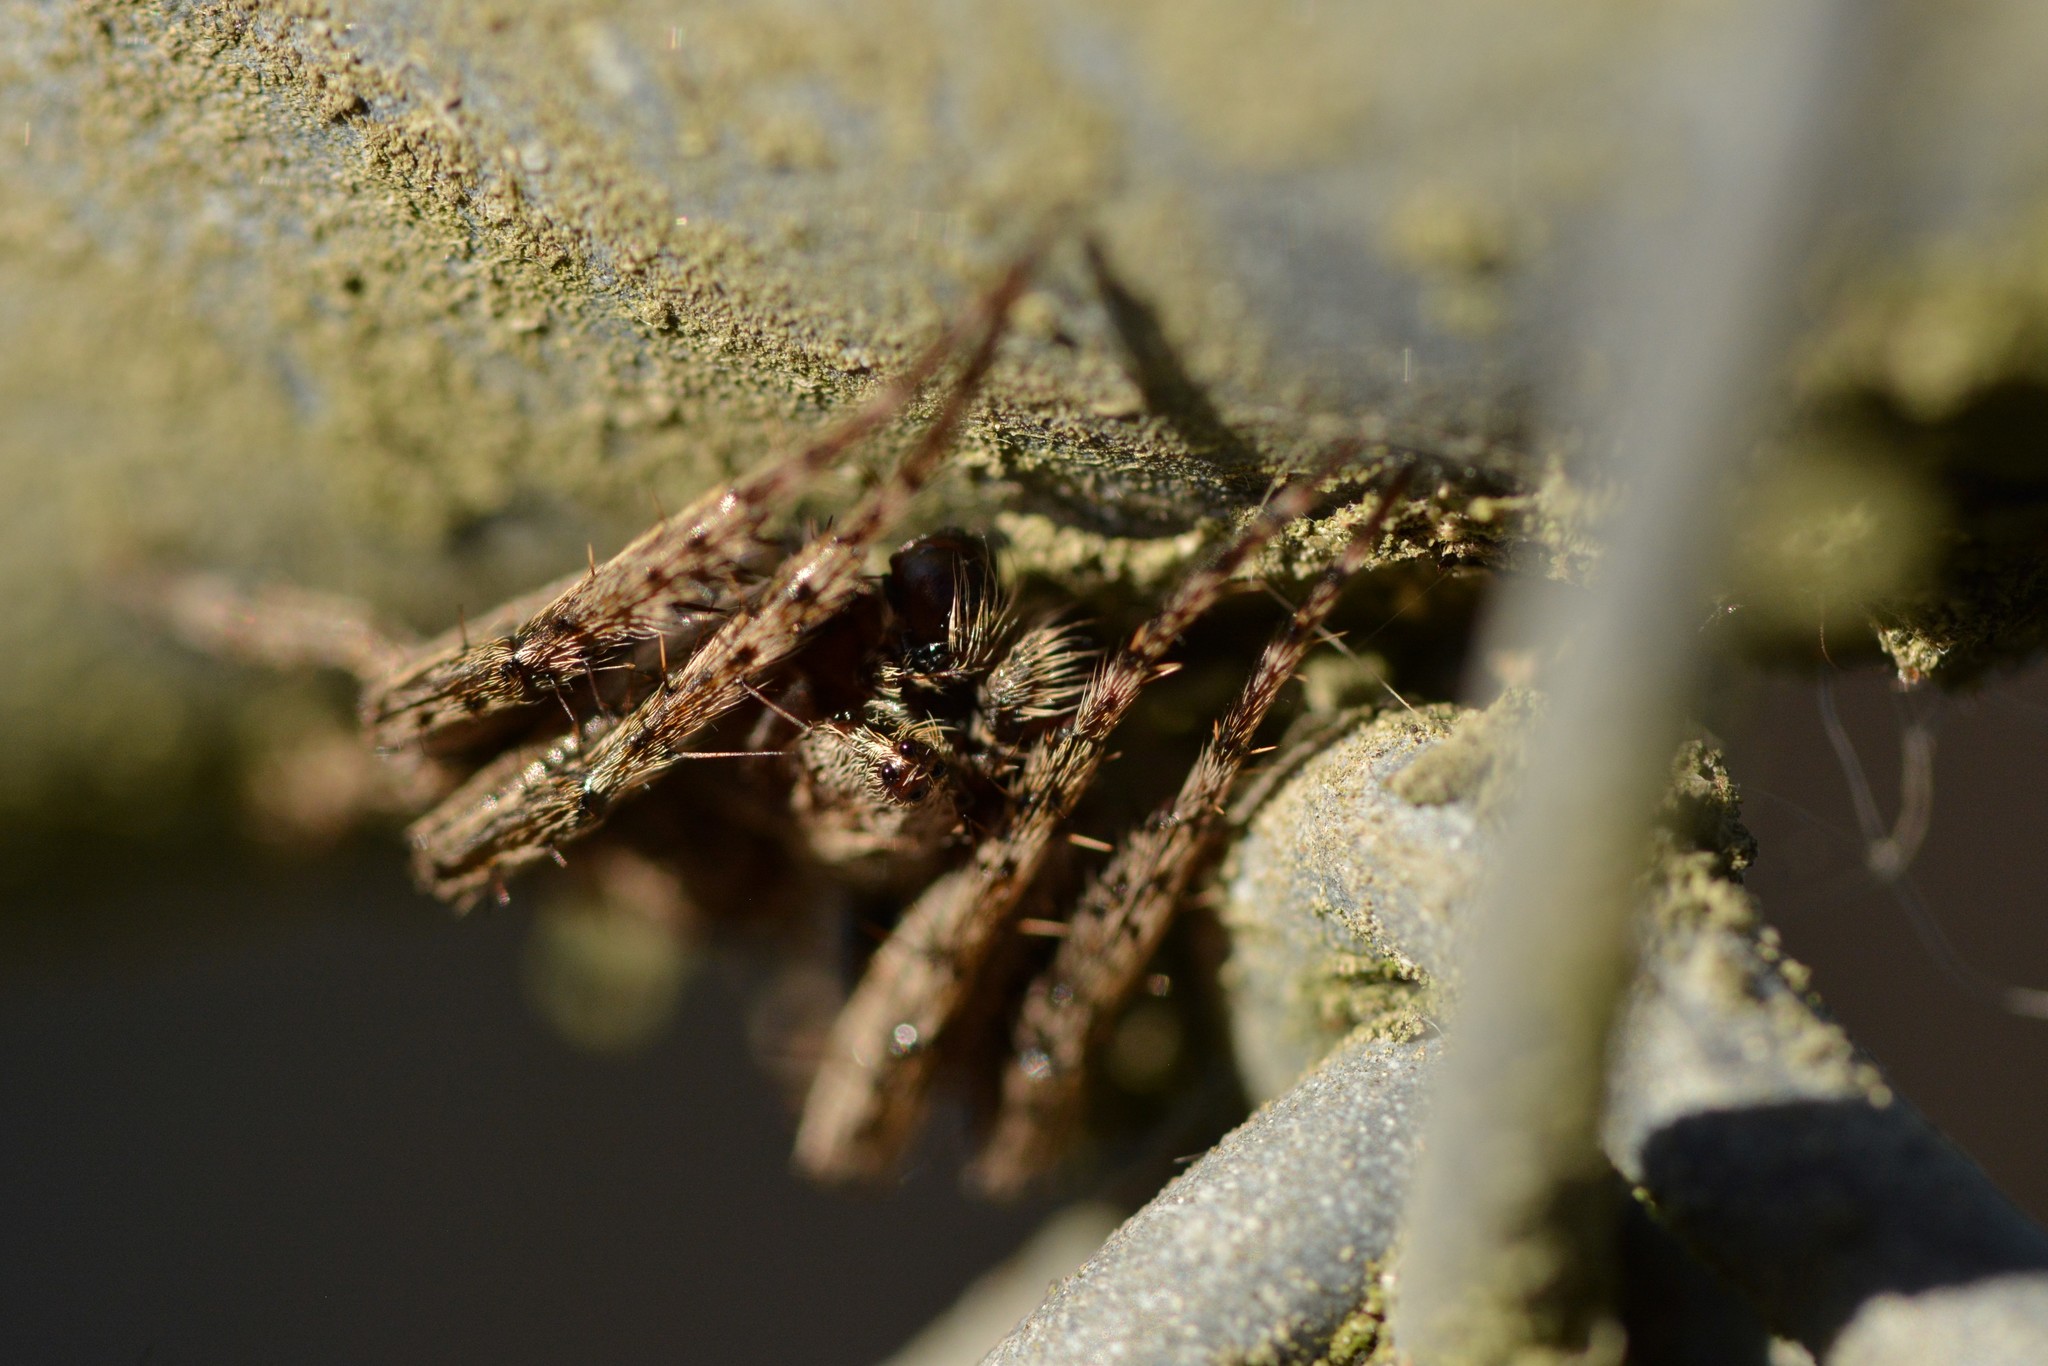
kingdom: Animalia
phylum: Arthropoda
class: Arachnida
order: Araneae
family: Araneidae
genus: Eriophora
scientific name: Eriophora pustulosa
